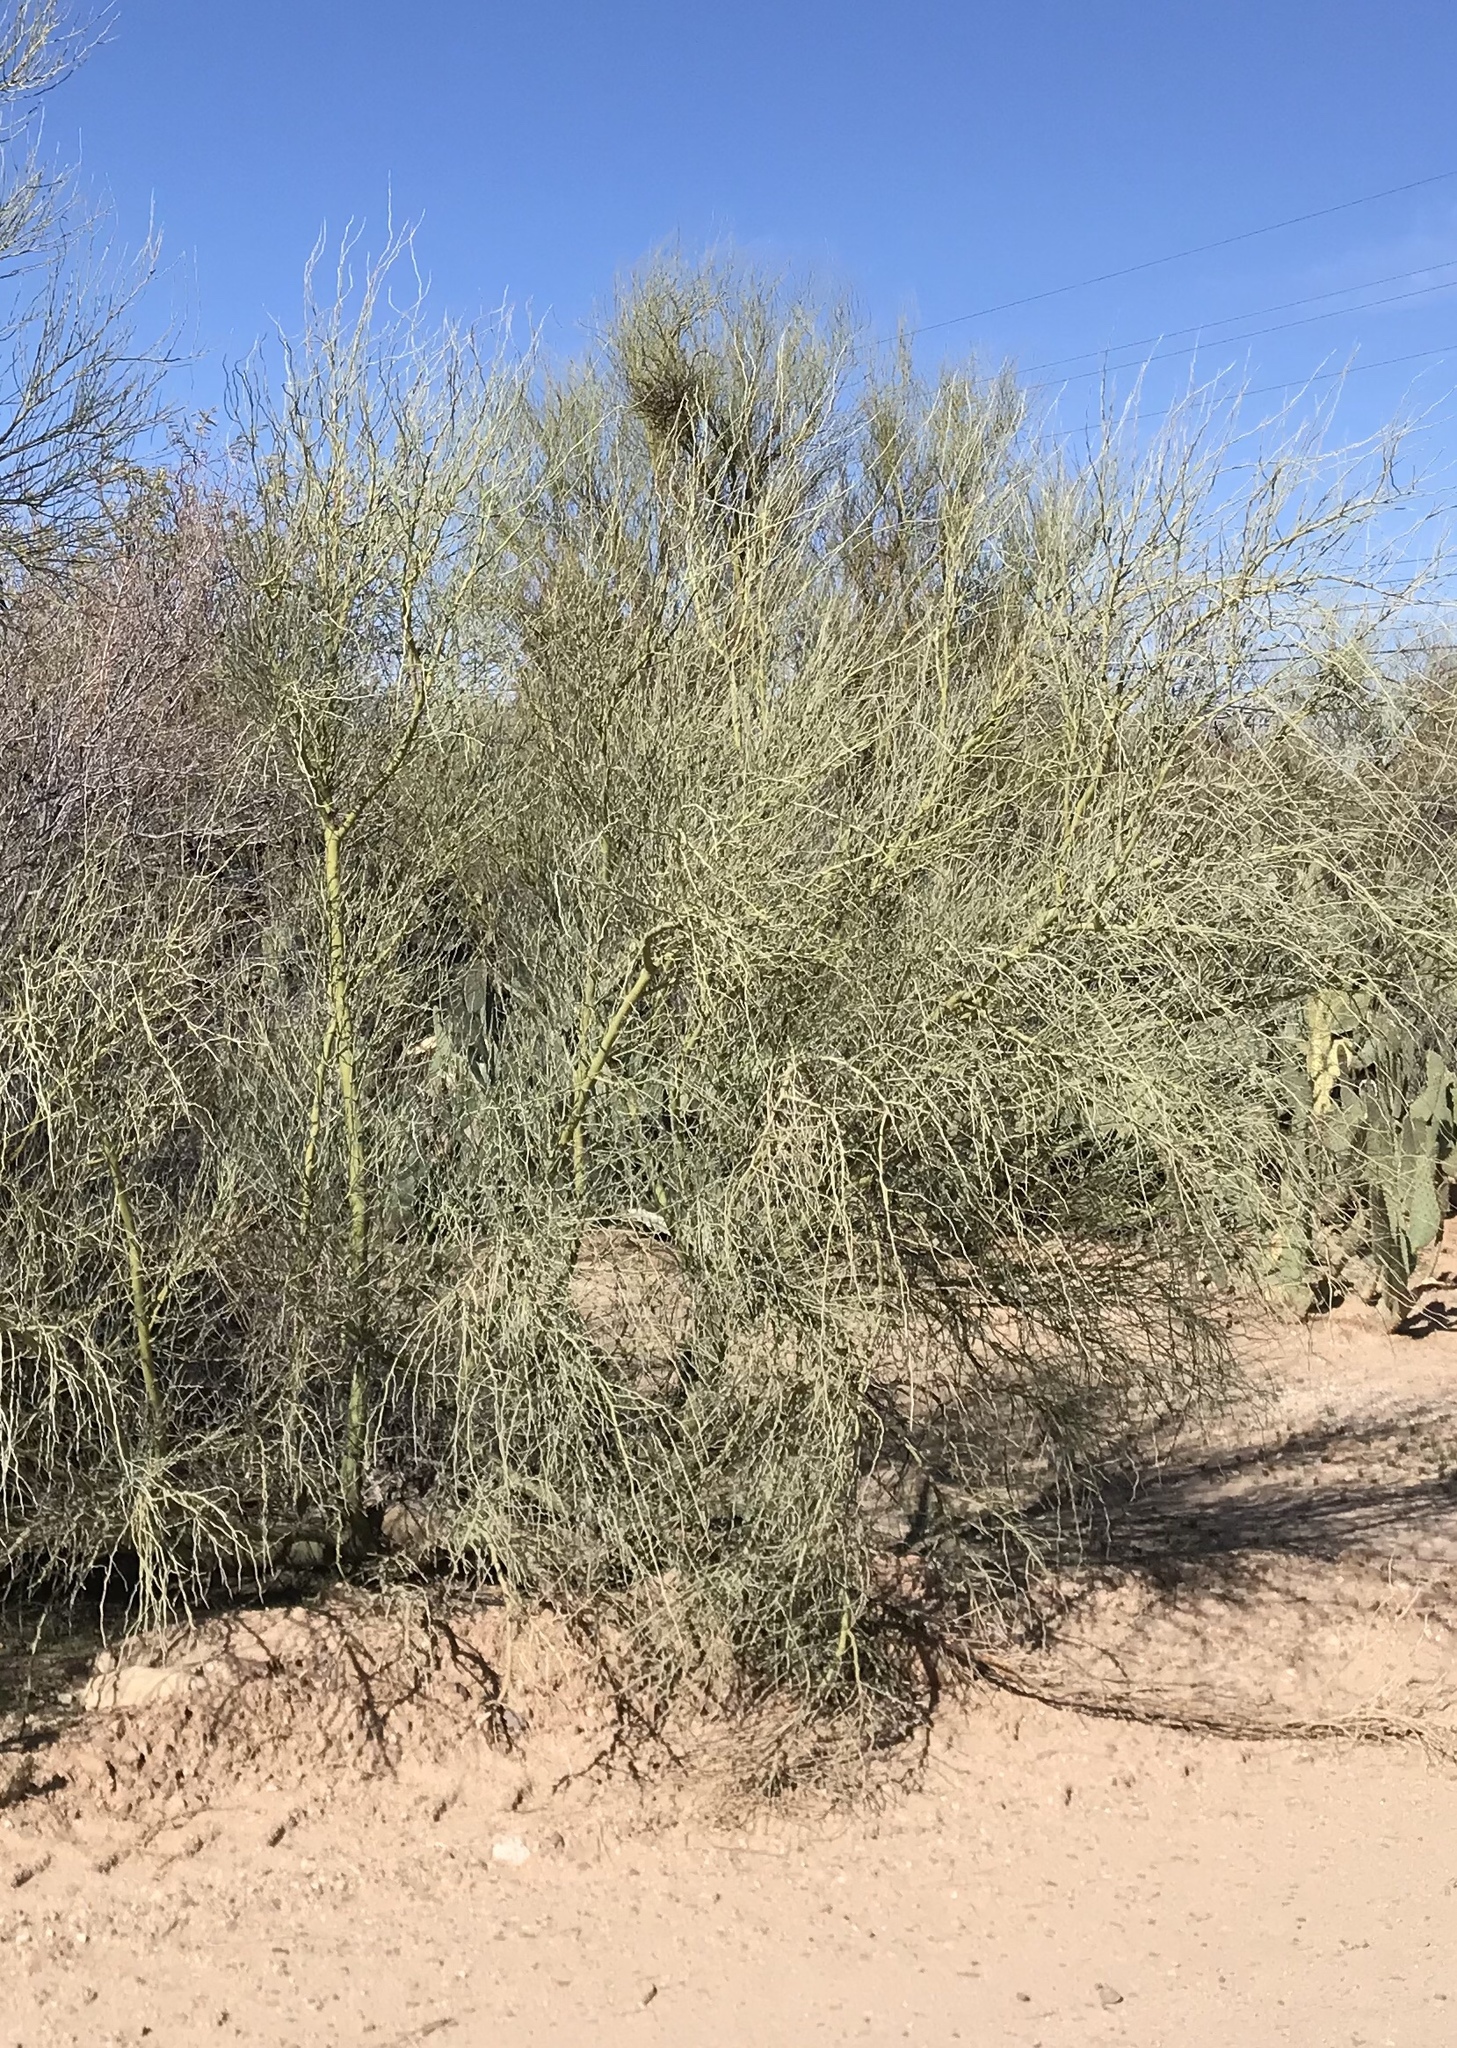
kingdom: Plantae
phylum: Tracheophyta
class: Magnoliopsida
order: Fabales
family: Fabaceae
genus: Parkinsonia
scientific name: Parkinsonia florida
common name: Blue paloverde
